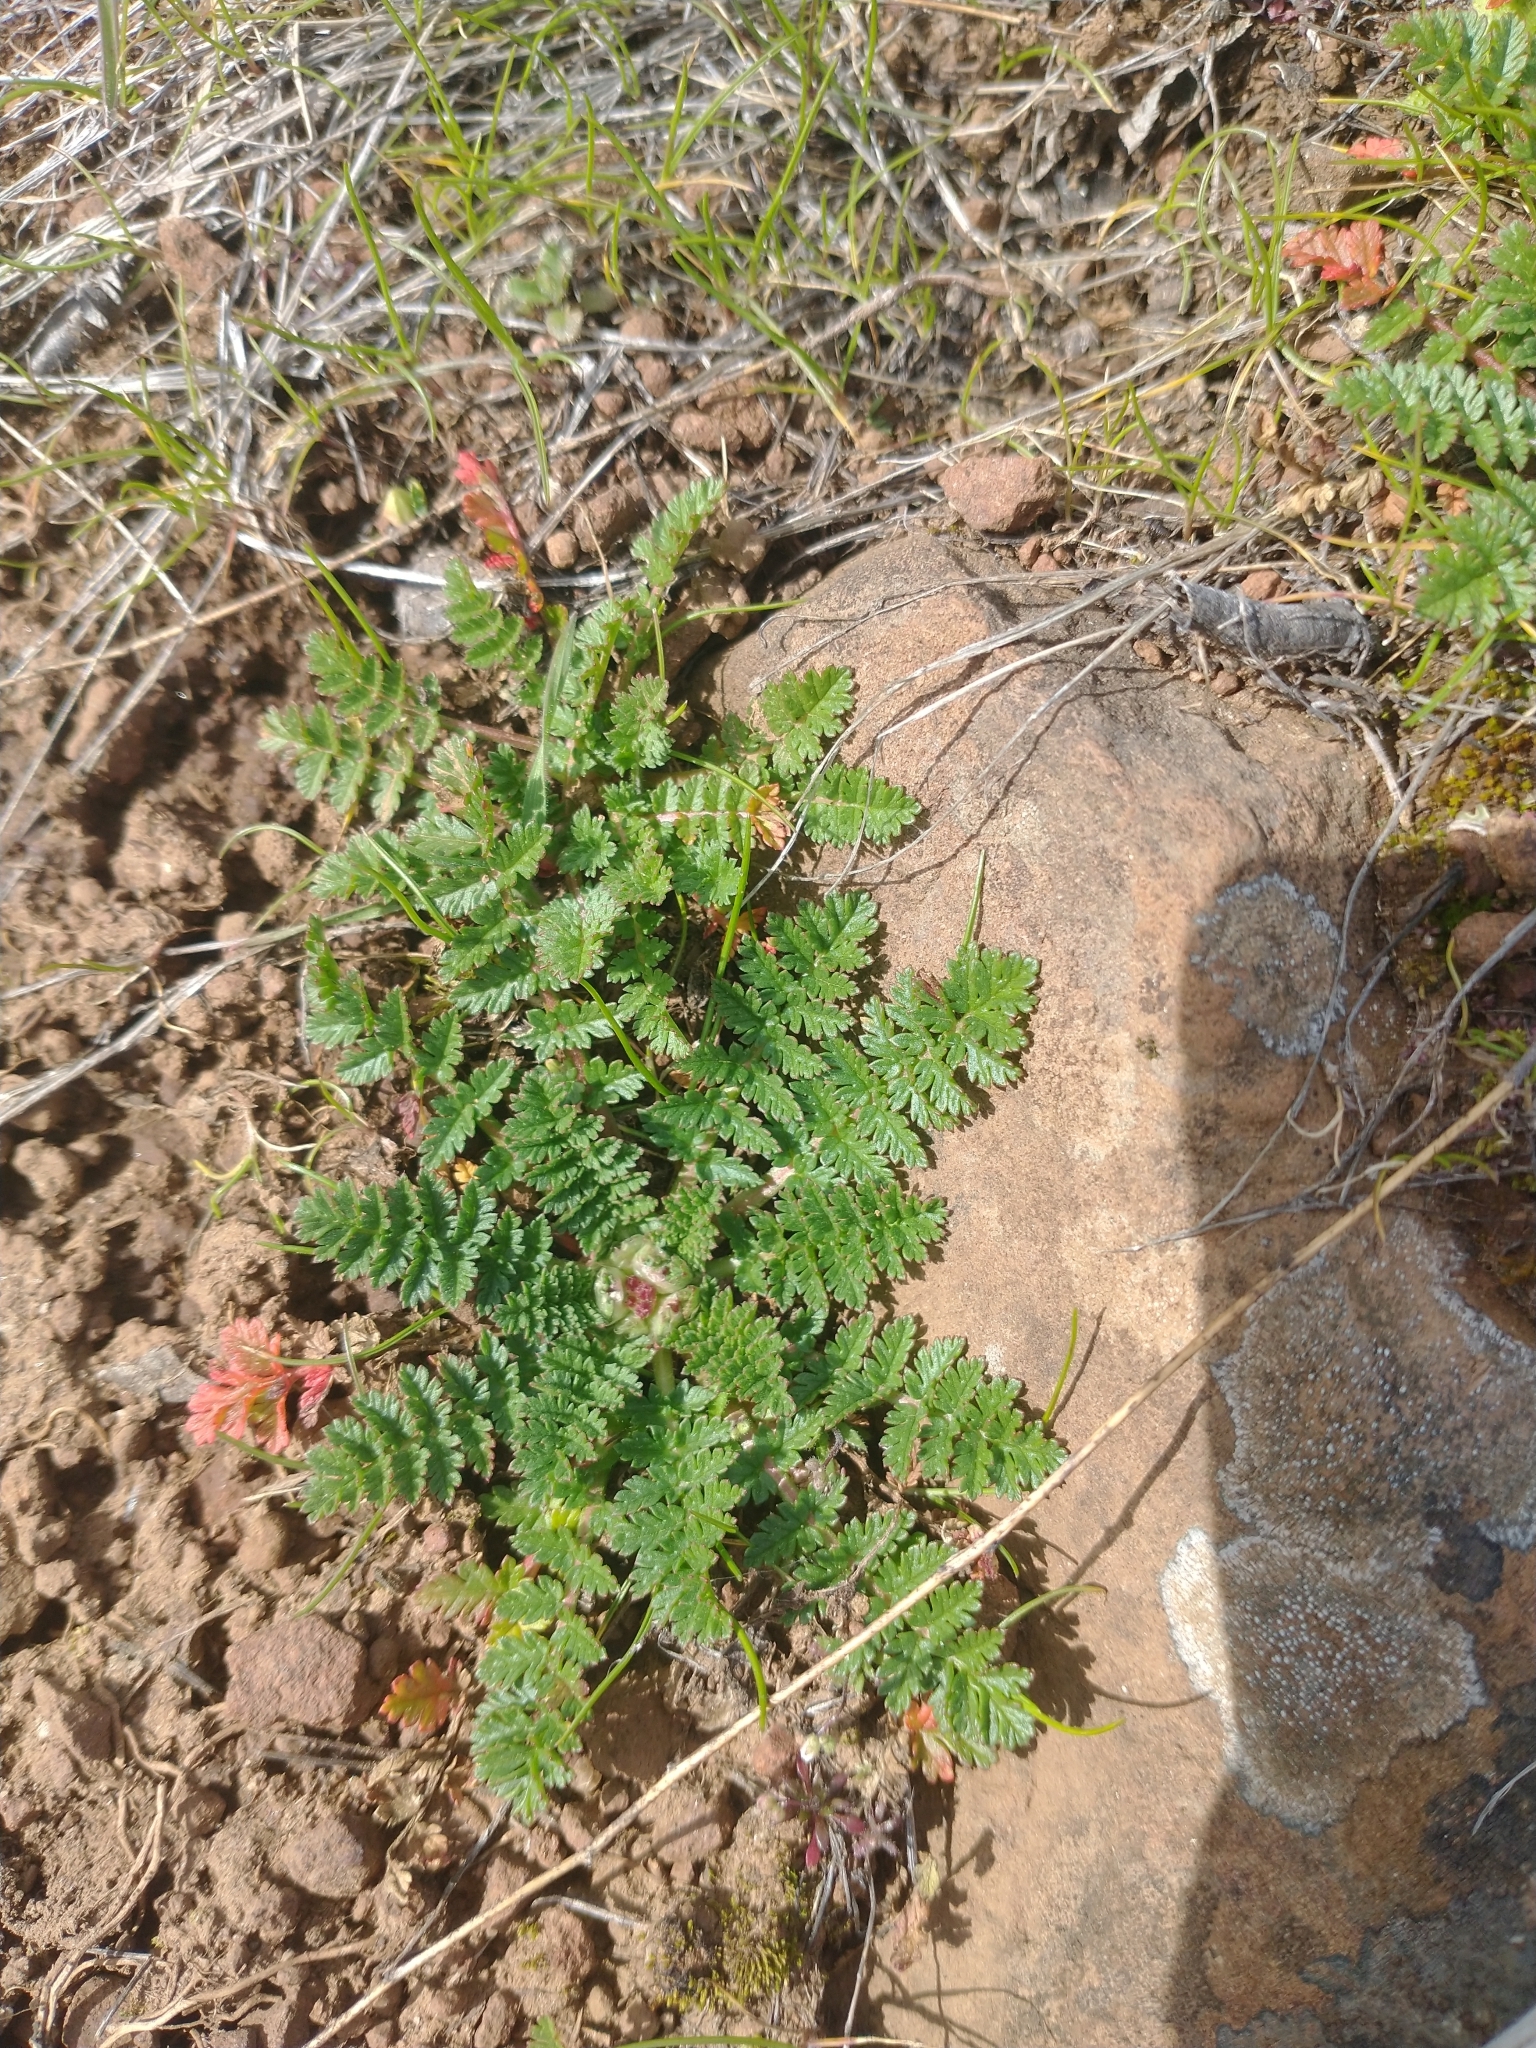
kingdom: Plantae
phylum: Tracheophyta
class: Magnoliopsida
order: Geraniales
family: Geraniaceae
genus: Erodium
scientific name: Erodium cicutarium
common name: Common stork's-bill
